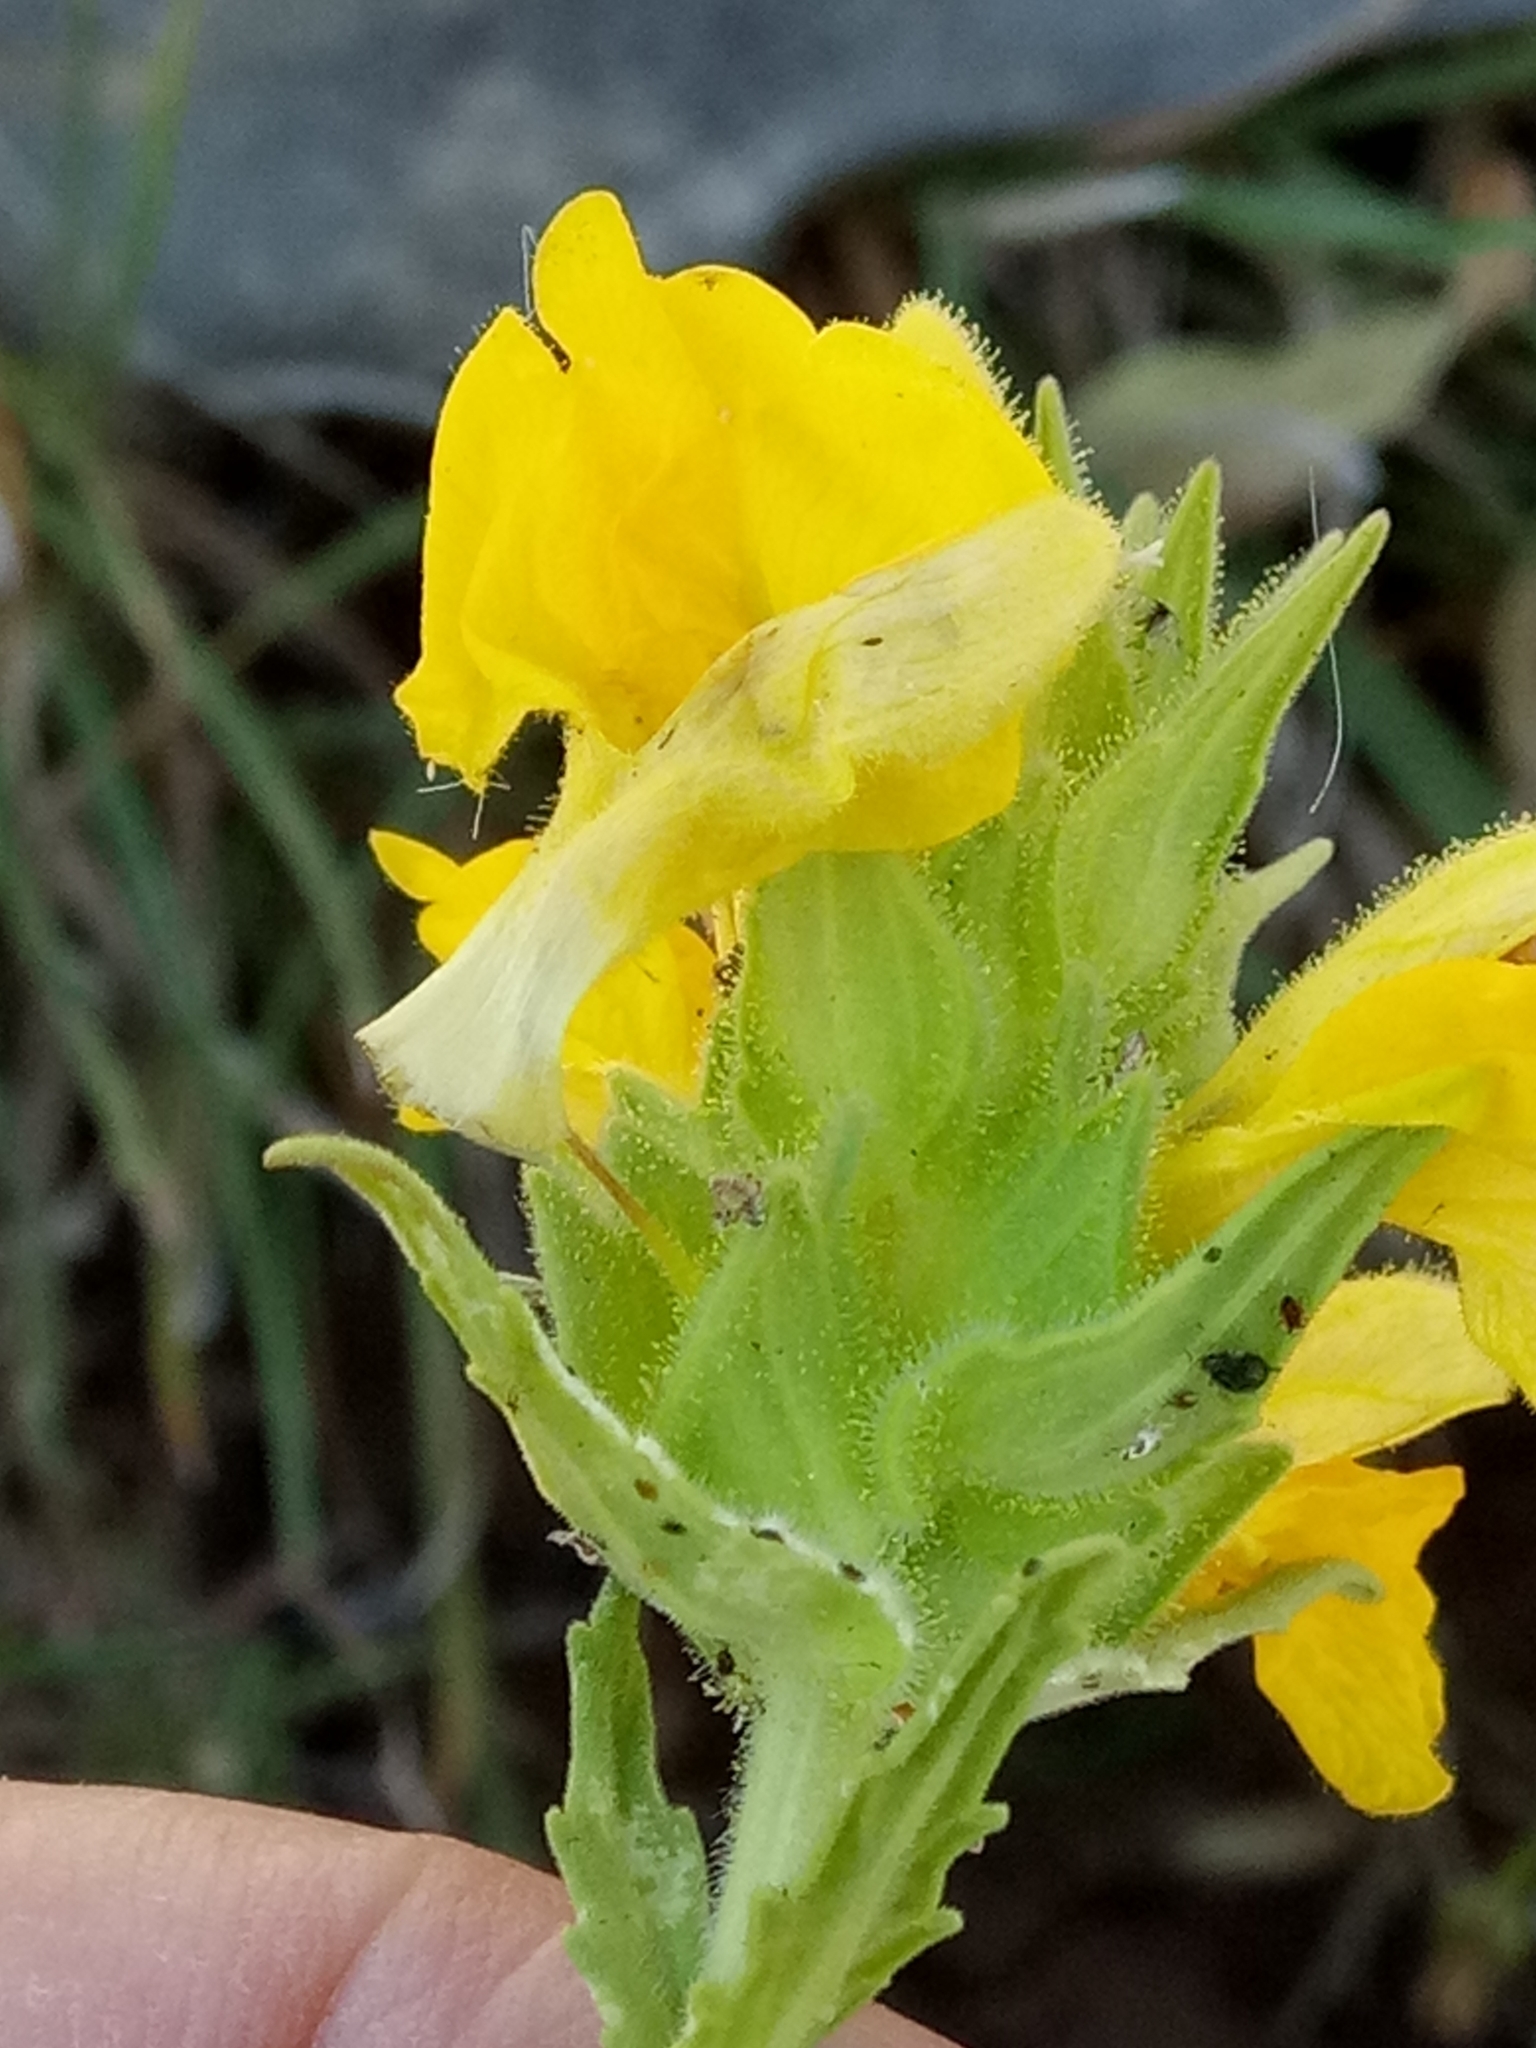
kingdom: Plantae
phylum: Tracheophyta
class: Magnoliopsida
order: Lamiales
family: Orobanchaceae
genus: Bellardia
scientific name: Bellardia trixago
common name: Mediterranean lineseed
